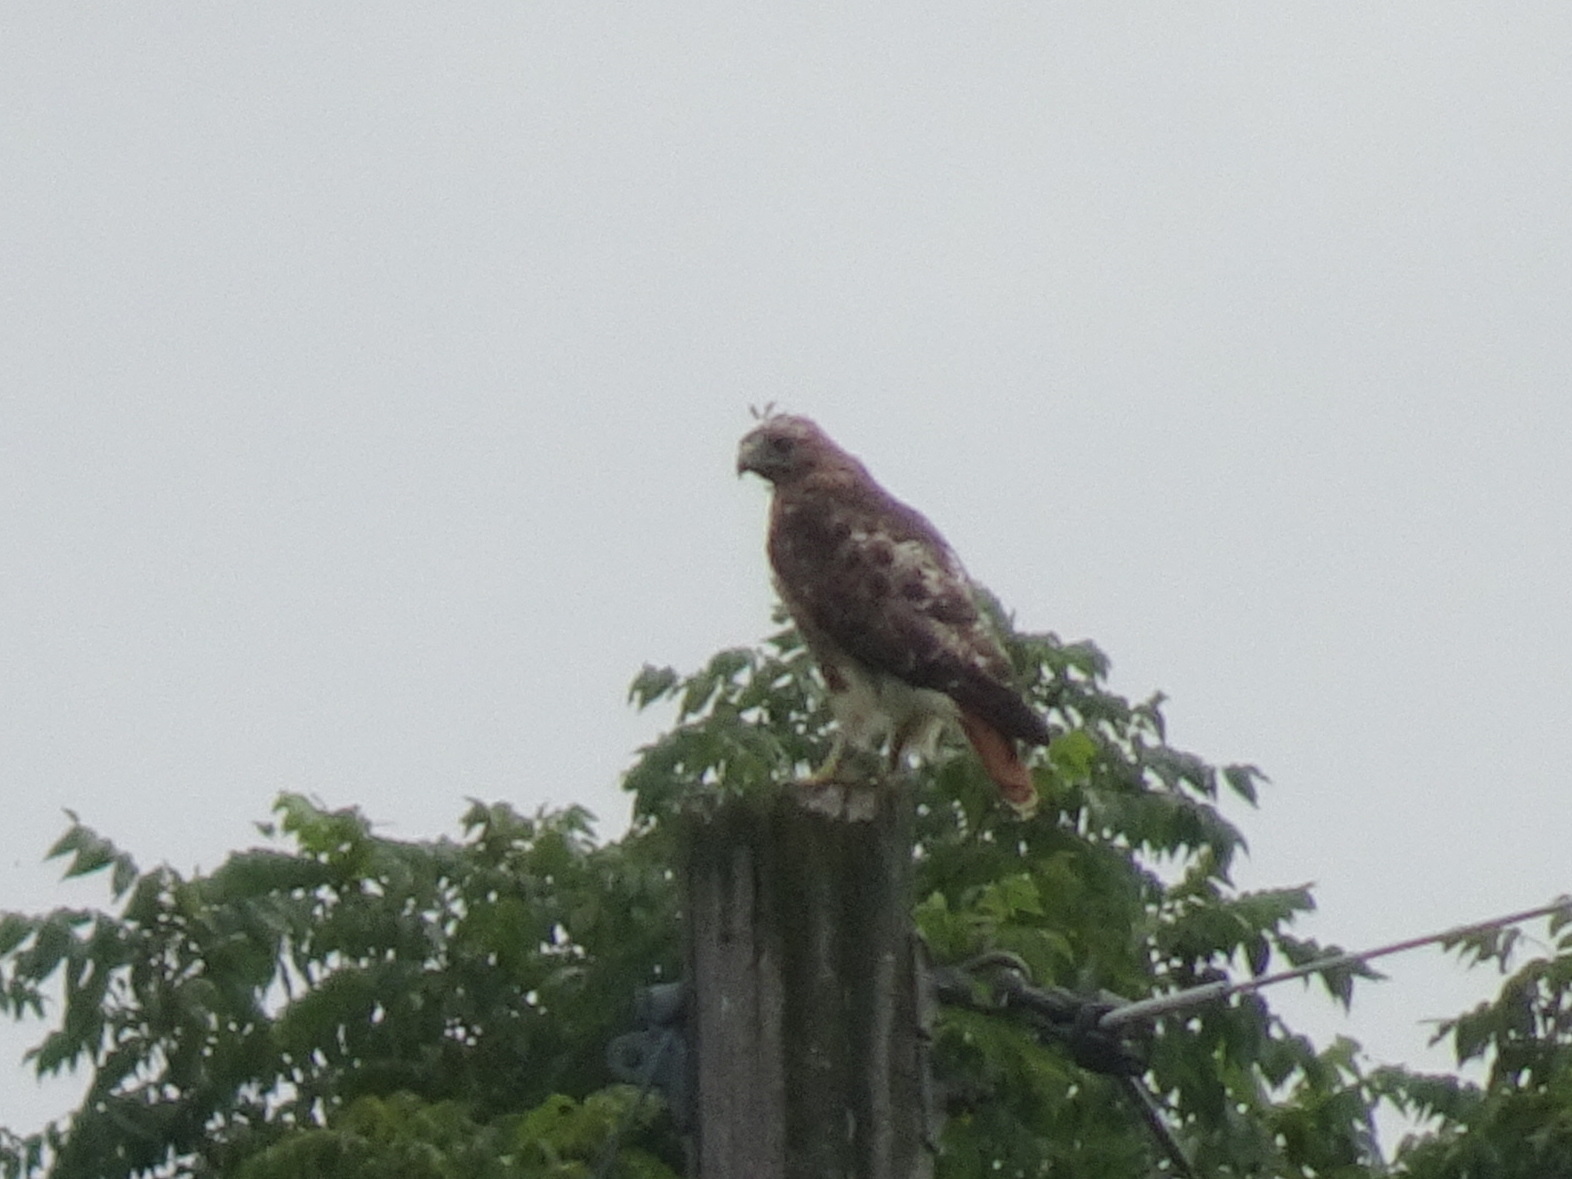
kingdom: Animalia
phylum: Chordata
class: Aves
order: Accipitriformes
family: Accipitridae
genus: Buteo
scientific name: Buteo jamaicensis
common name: Red-tailed hawk
